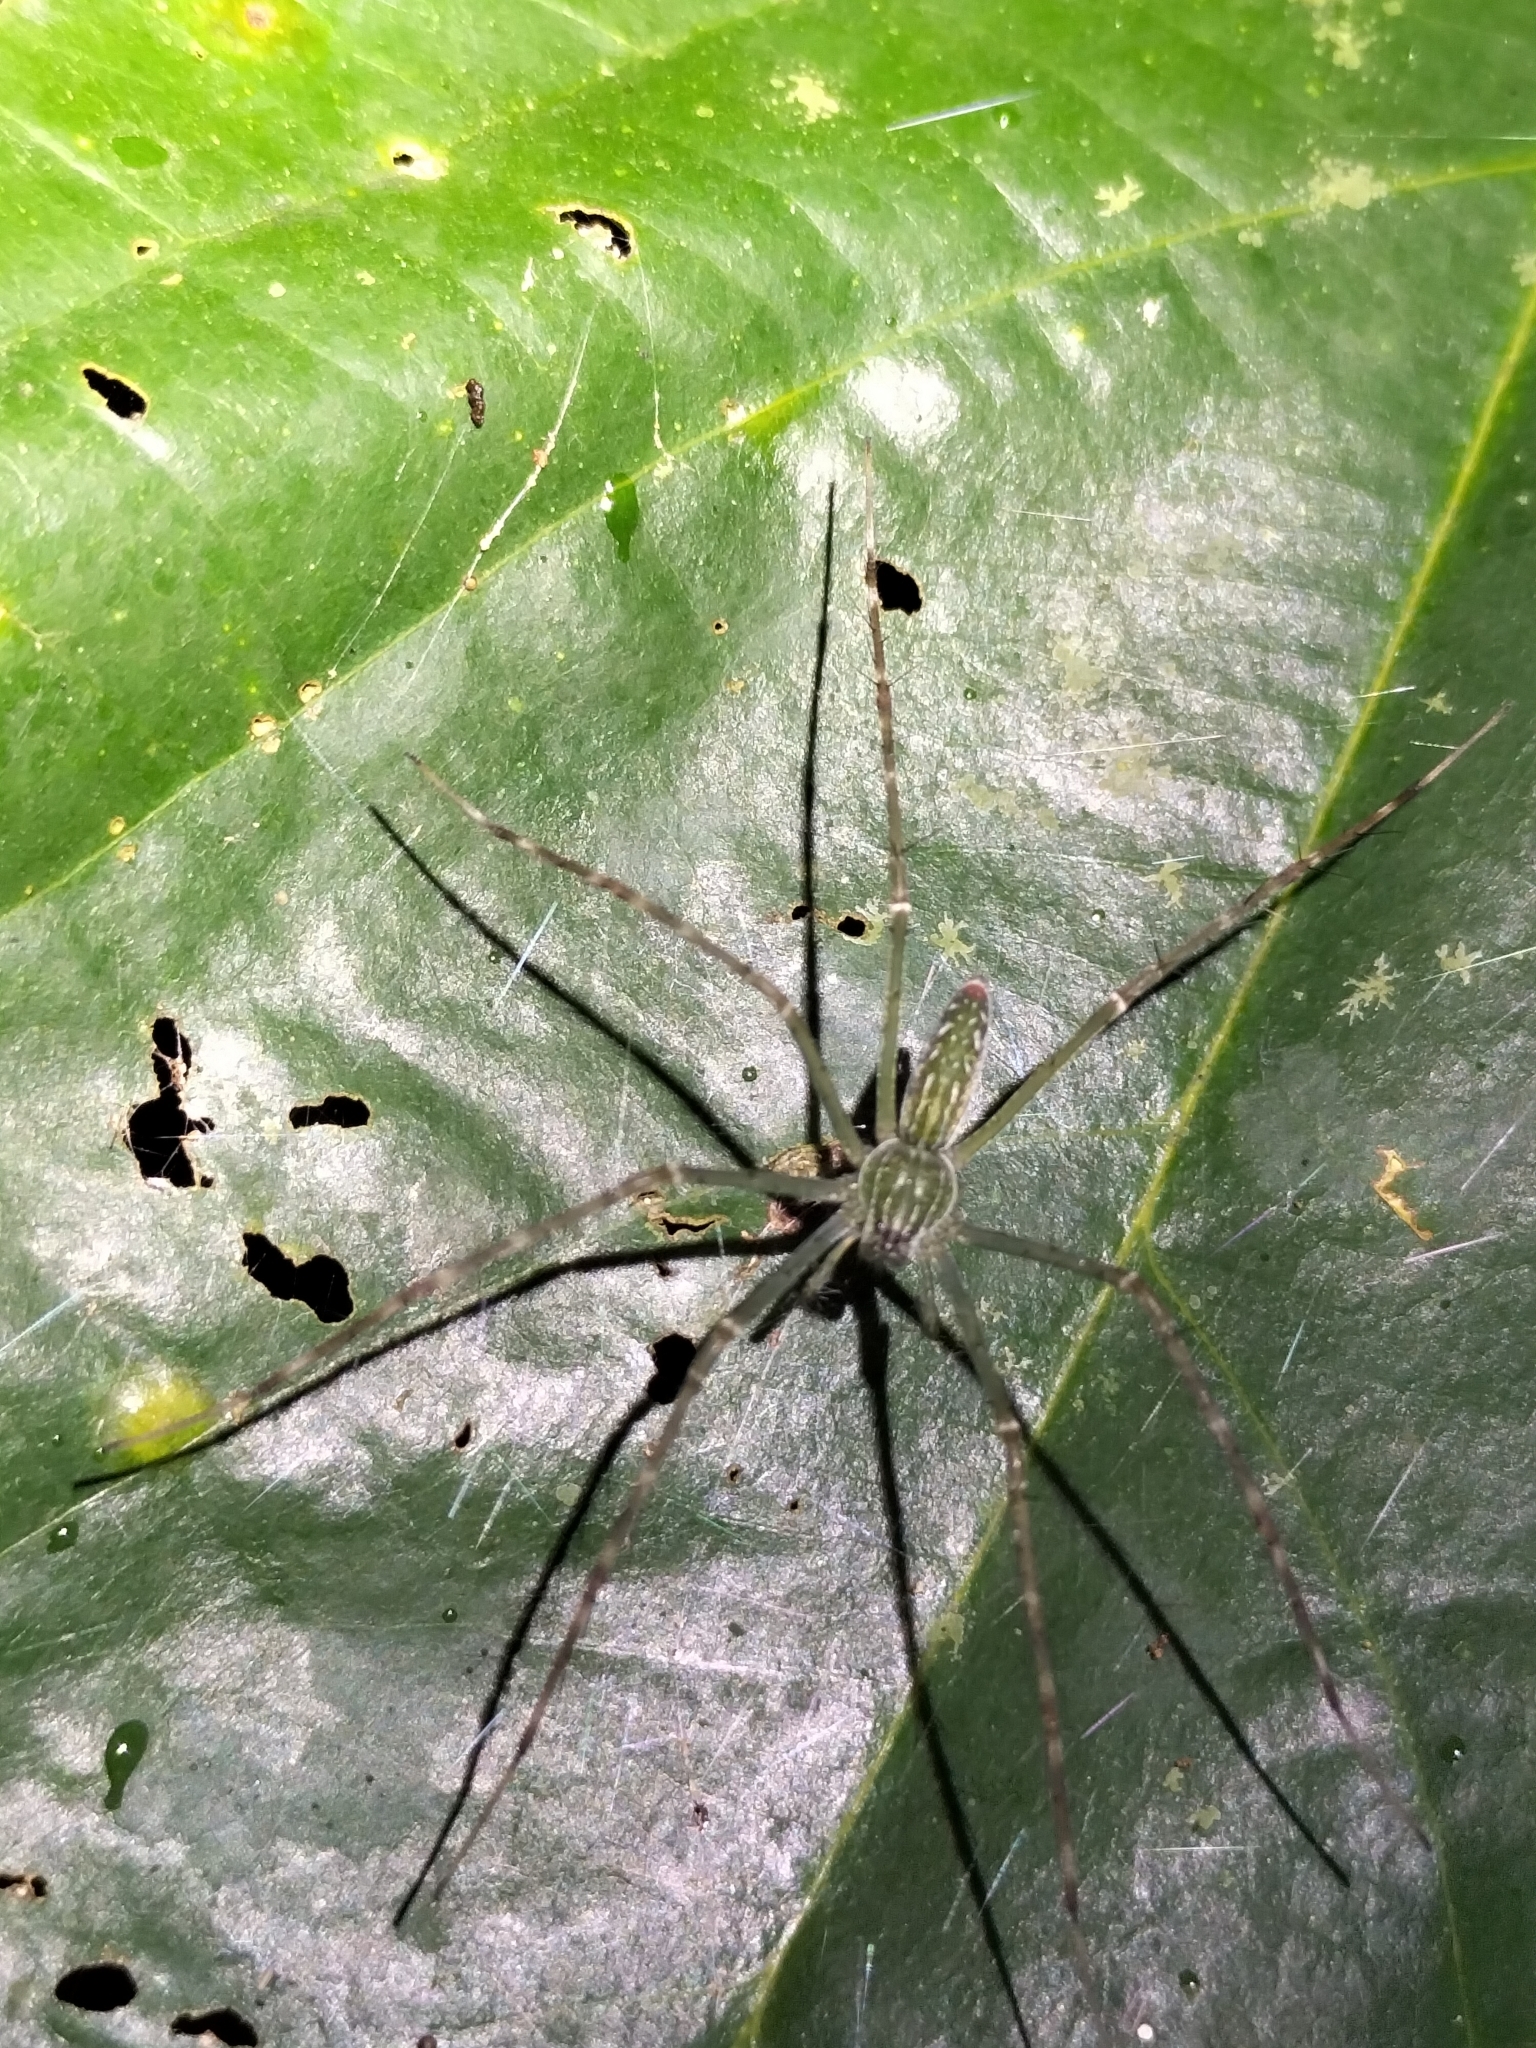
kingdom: Animalia
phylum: Arthropoda
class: Arachnida
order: Araneae
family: Pisauridae
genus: Hygropoda
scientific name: Hygropoda lineata
